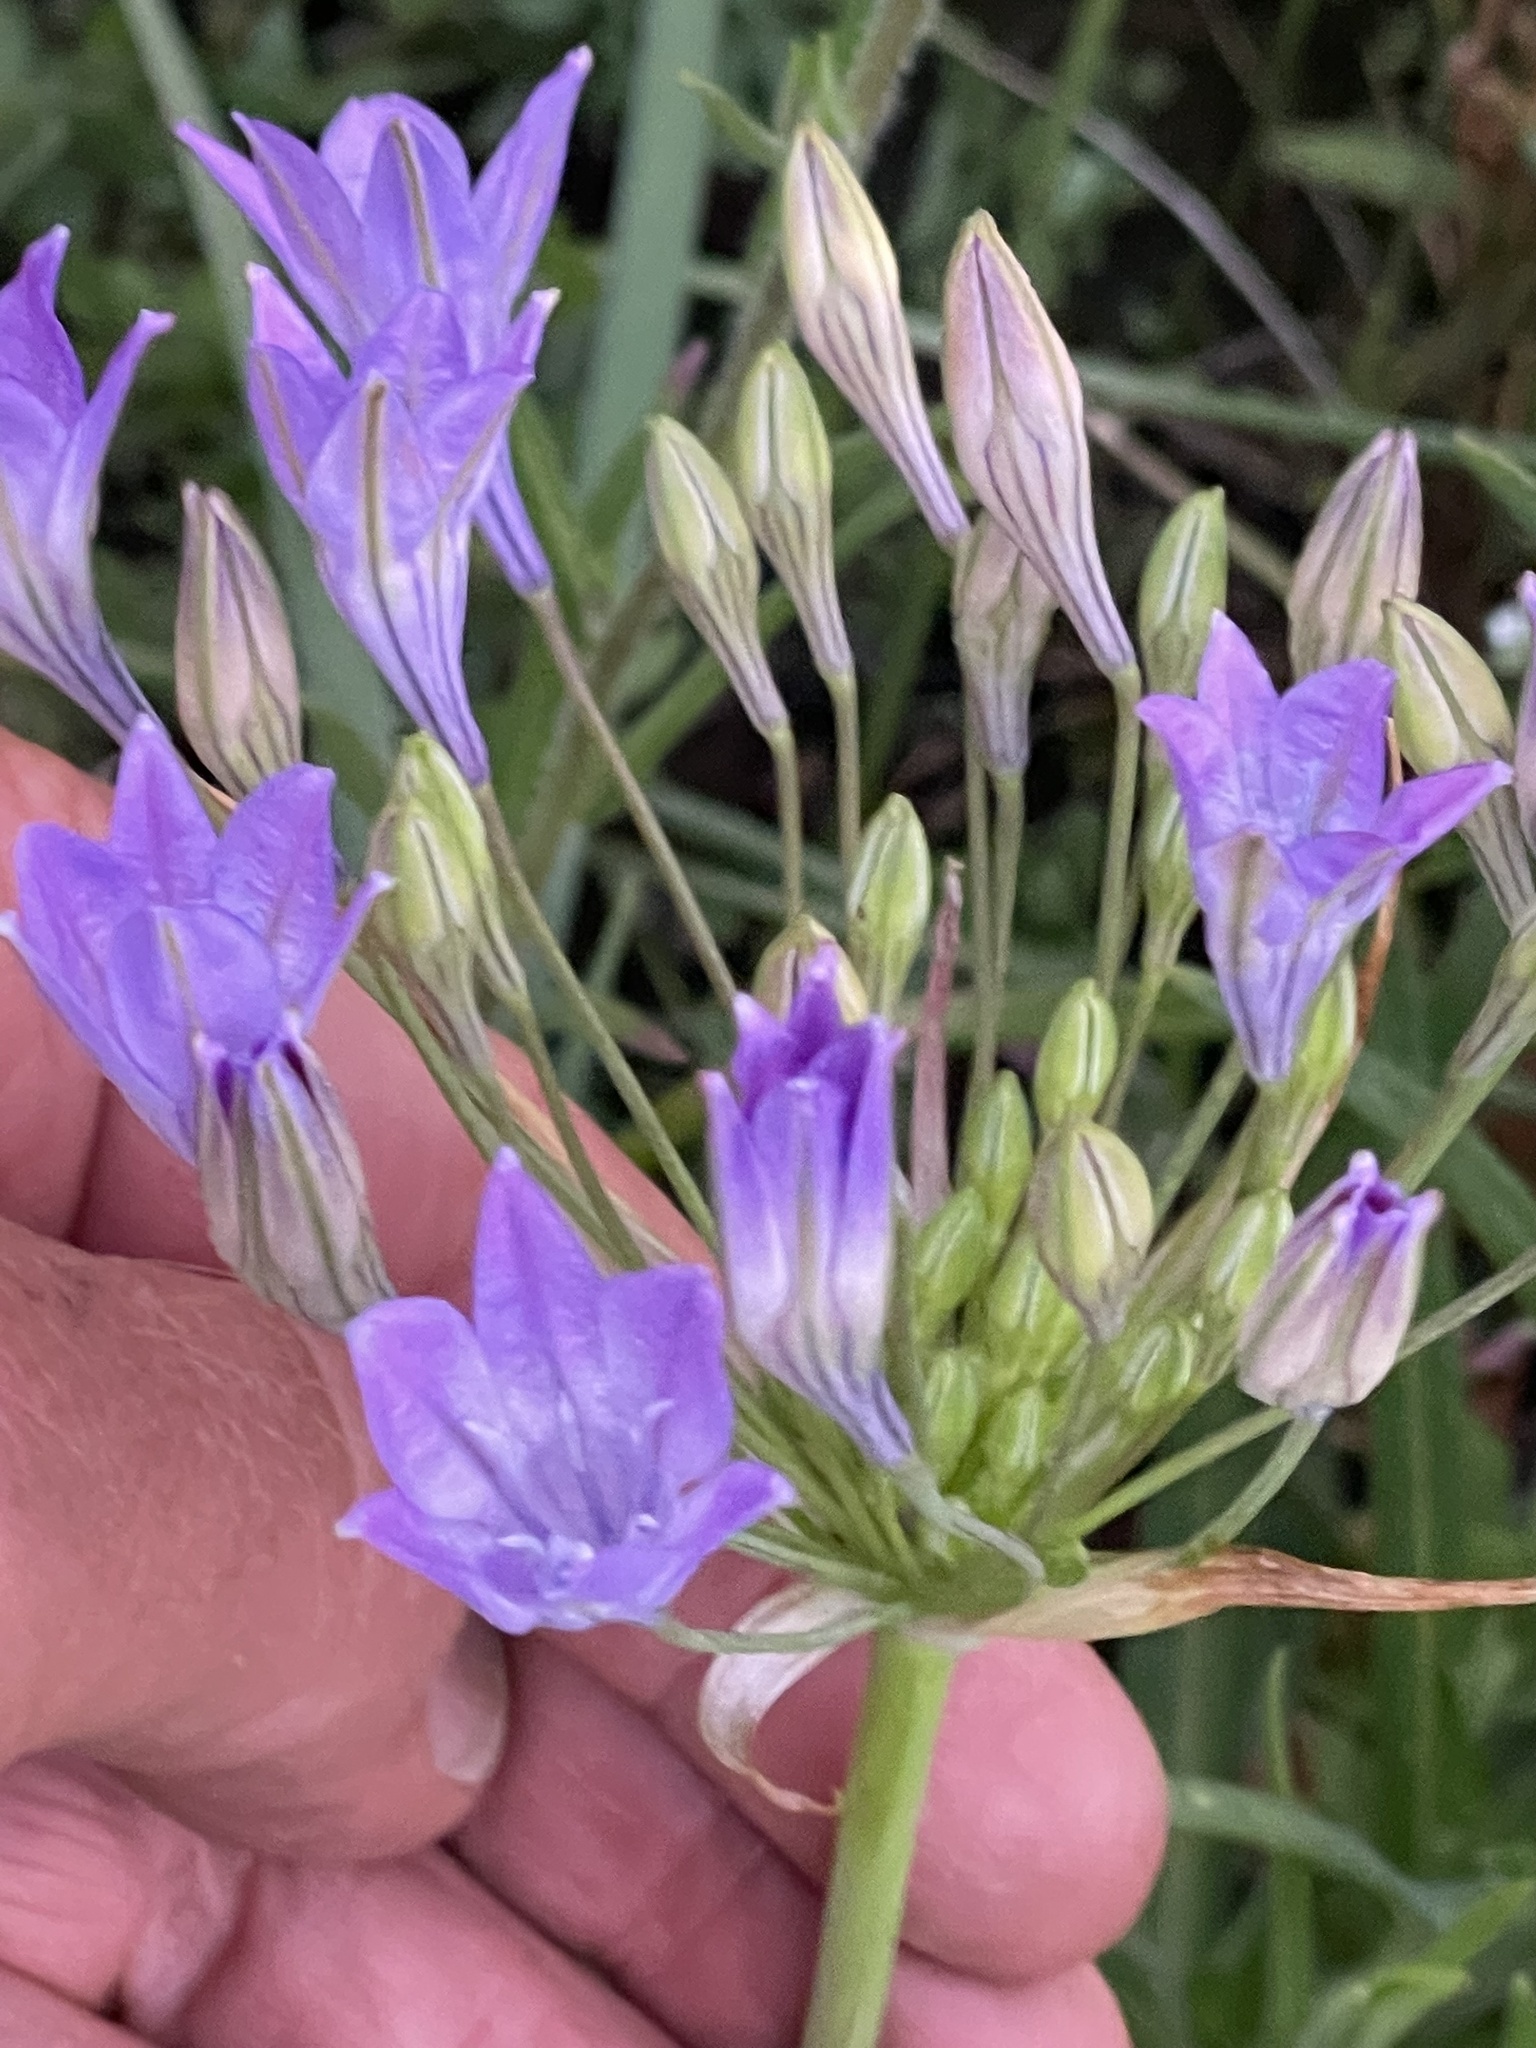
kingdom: Plantae
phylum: Tracheophyta
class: Liliopsida
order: Asparagales
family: Asparagaceae
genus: Triteleia
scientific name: Triteleia laxa
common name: Triplet-lily
